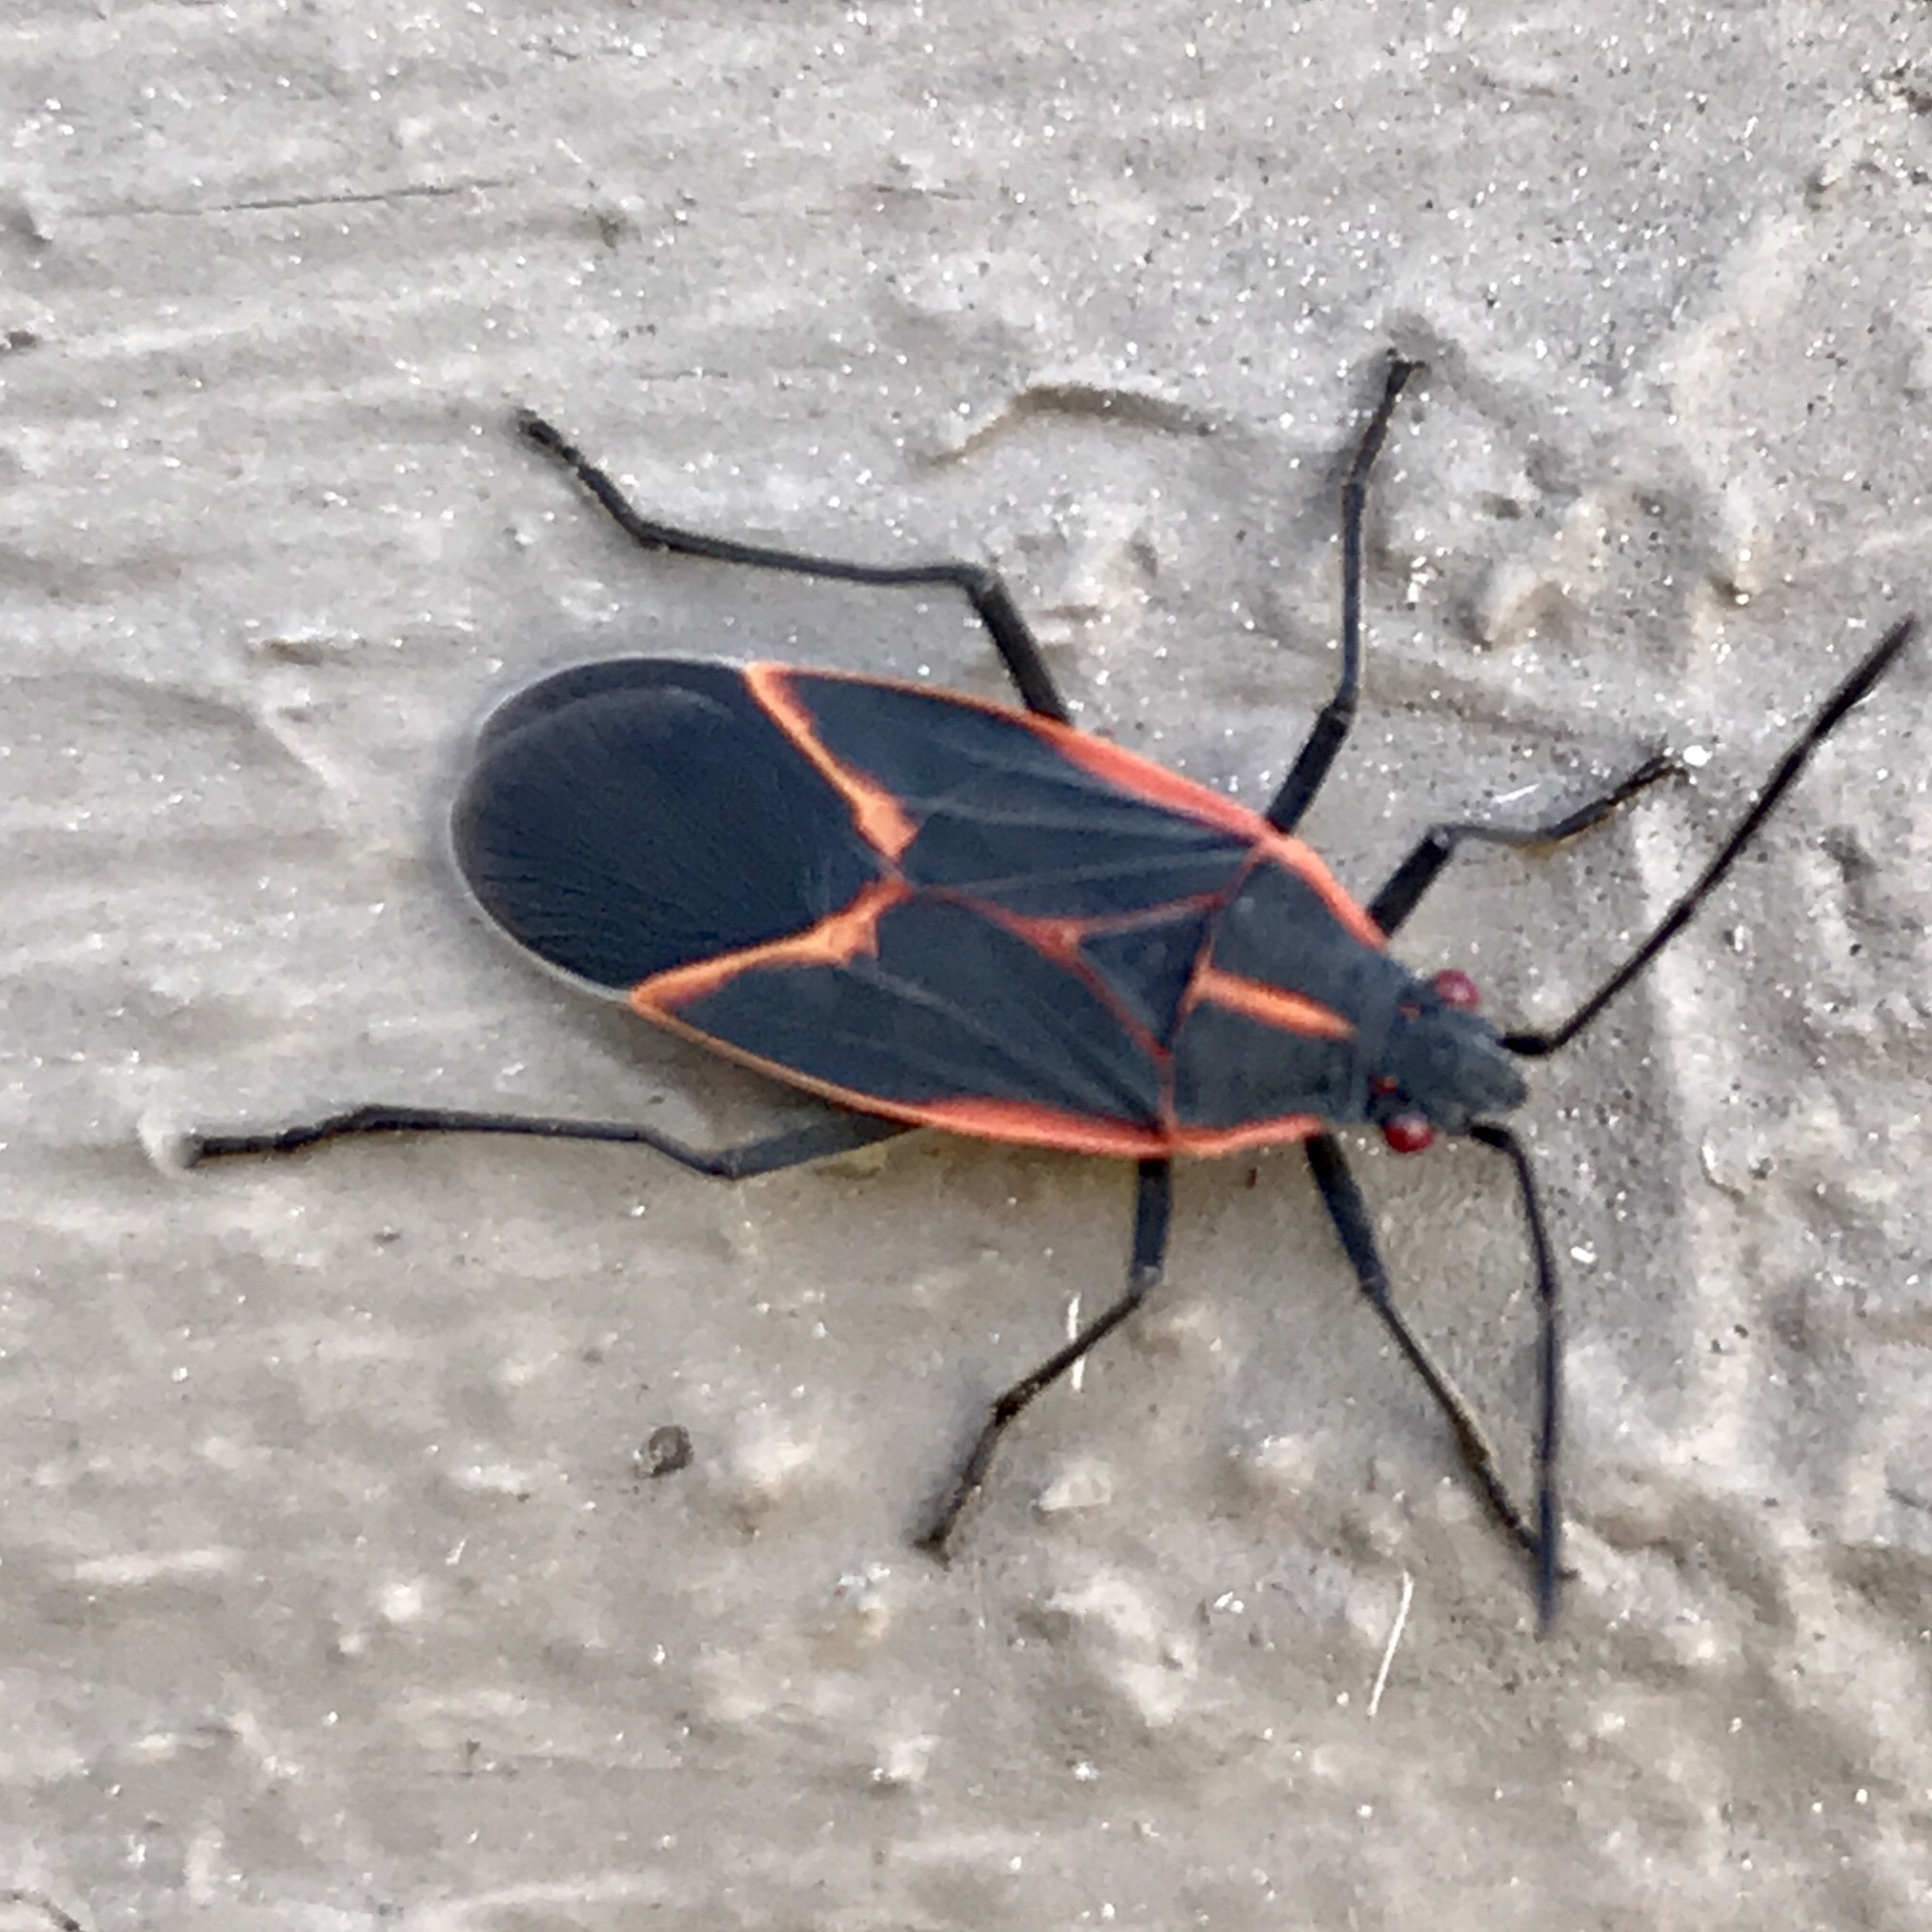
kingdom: Animalia
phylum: Arthropoda
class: Insecta
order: Hemiptera
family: Rhopalidae
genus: Boisea
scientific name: Boisea trivittata
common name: Boxelder bug
